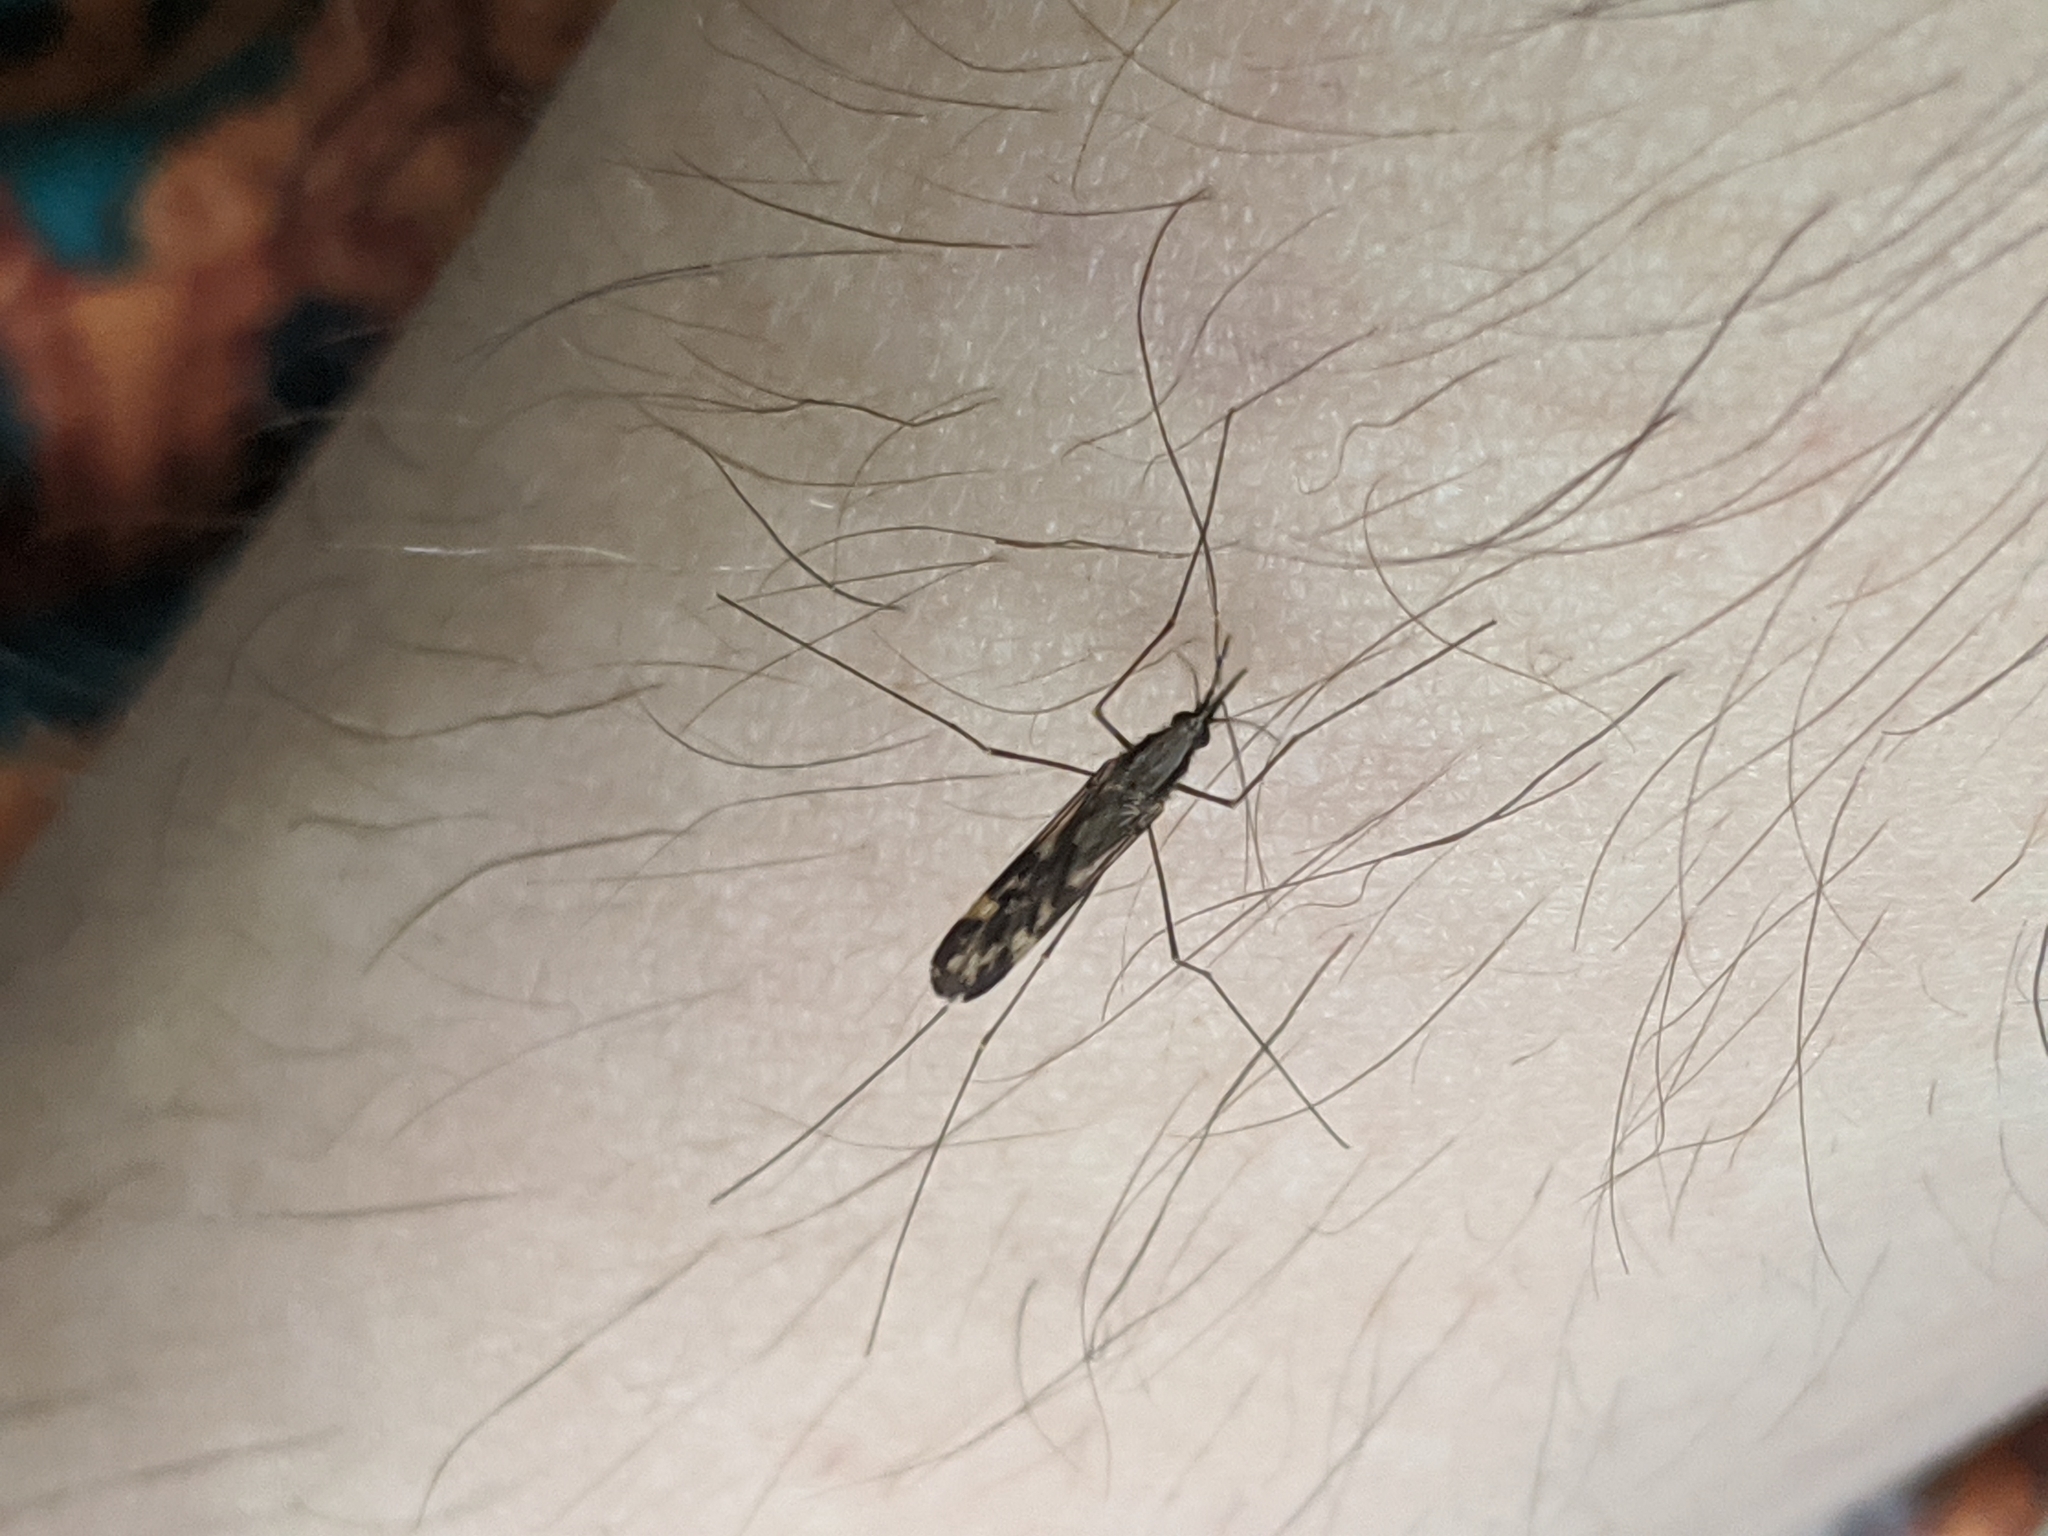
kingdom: Animalia
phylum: Arthropoda
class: Insecta
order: Diptera
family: Culicidae
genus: Anopheles
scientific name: Anopheles punctipennis
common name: Woodland malaria mosquito
